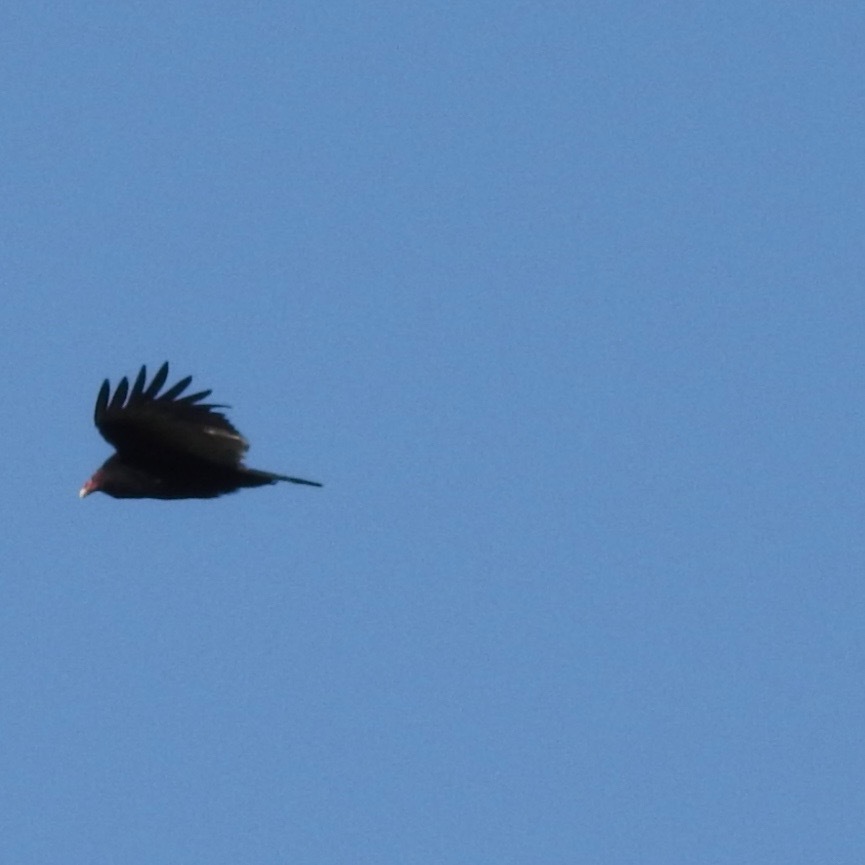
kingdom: Animalia
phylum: Chordata
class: Aves
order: Accipitriformes
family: Cathartidae
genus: Cathartes
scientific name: Cathartes aura
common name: Turkey vulture
